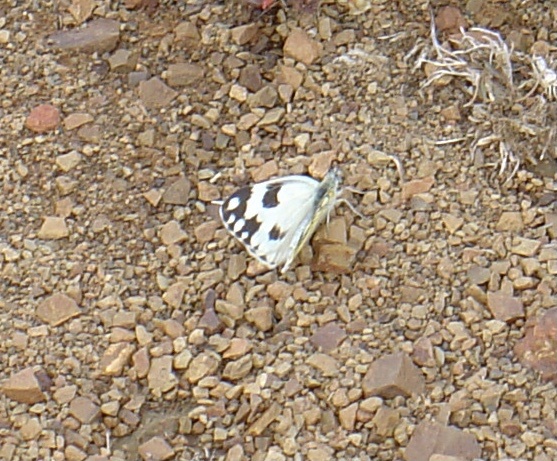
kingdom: Animalia
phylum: Arthropoda
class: Insecta
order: Lepidoptera
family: Pieridae
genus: Pontia
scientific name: Pontia helice
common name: Meadow white
